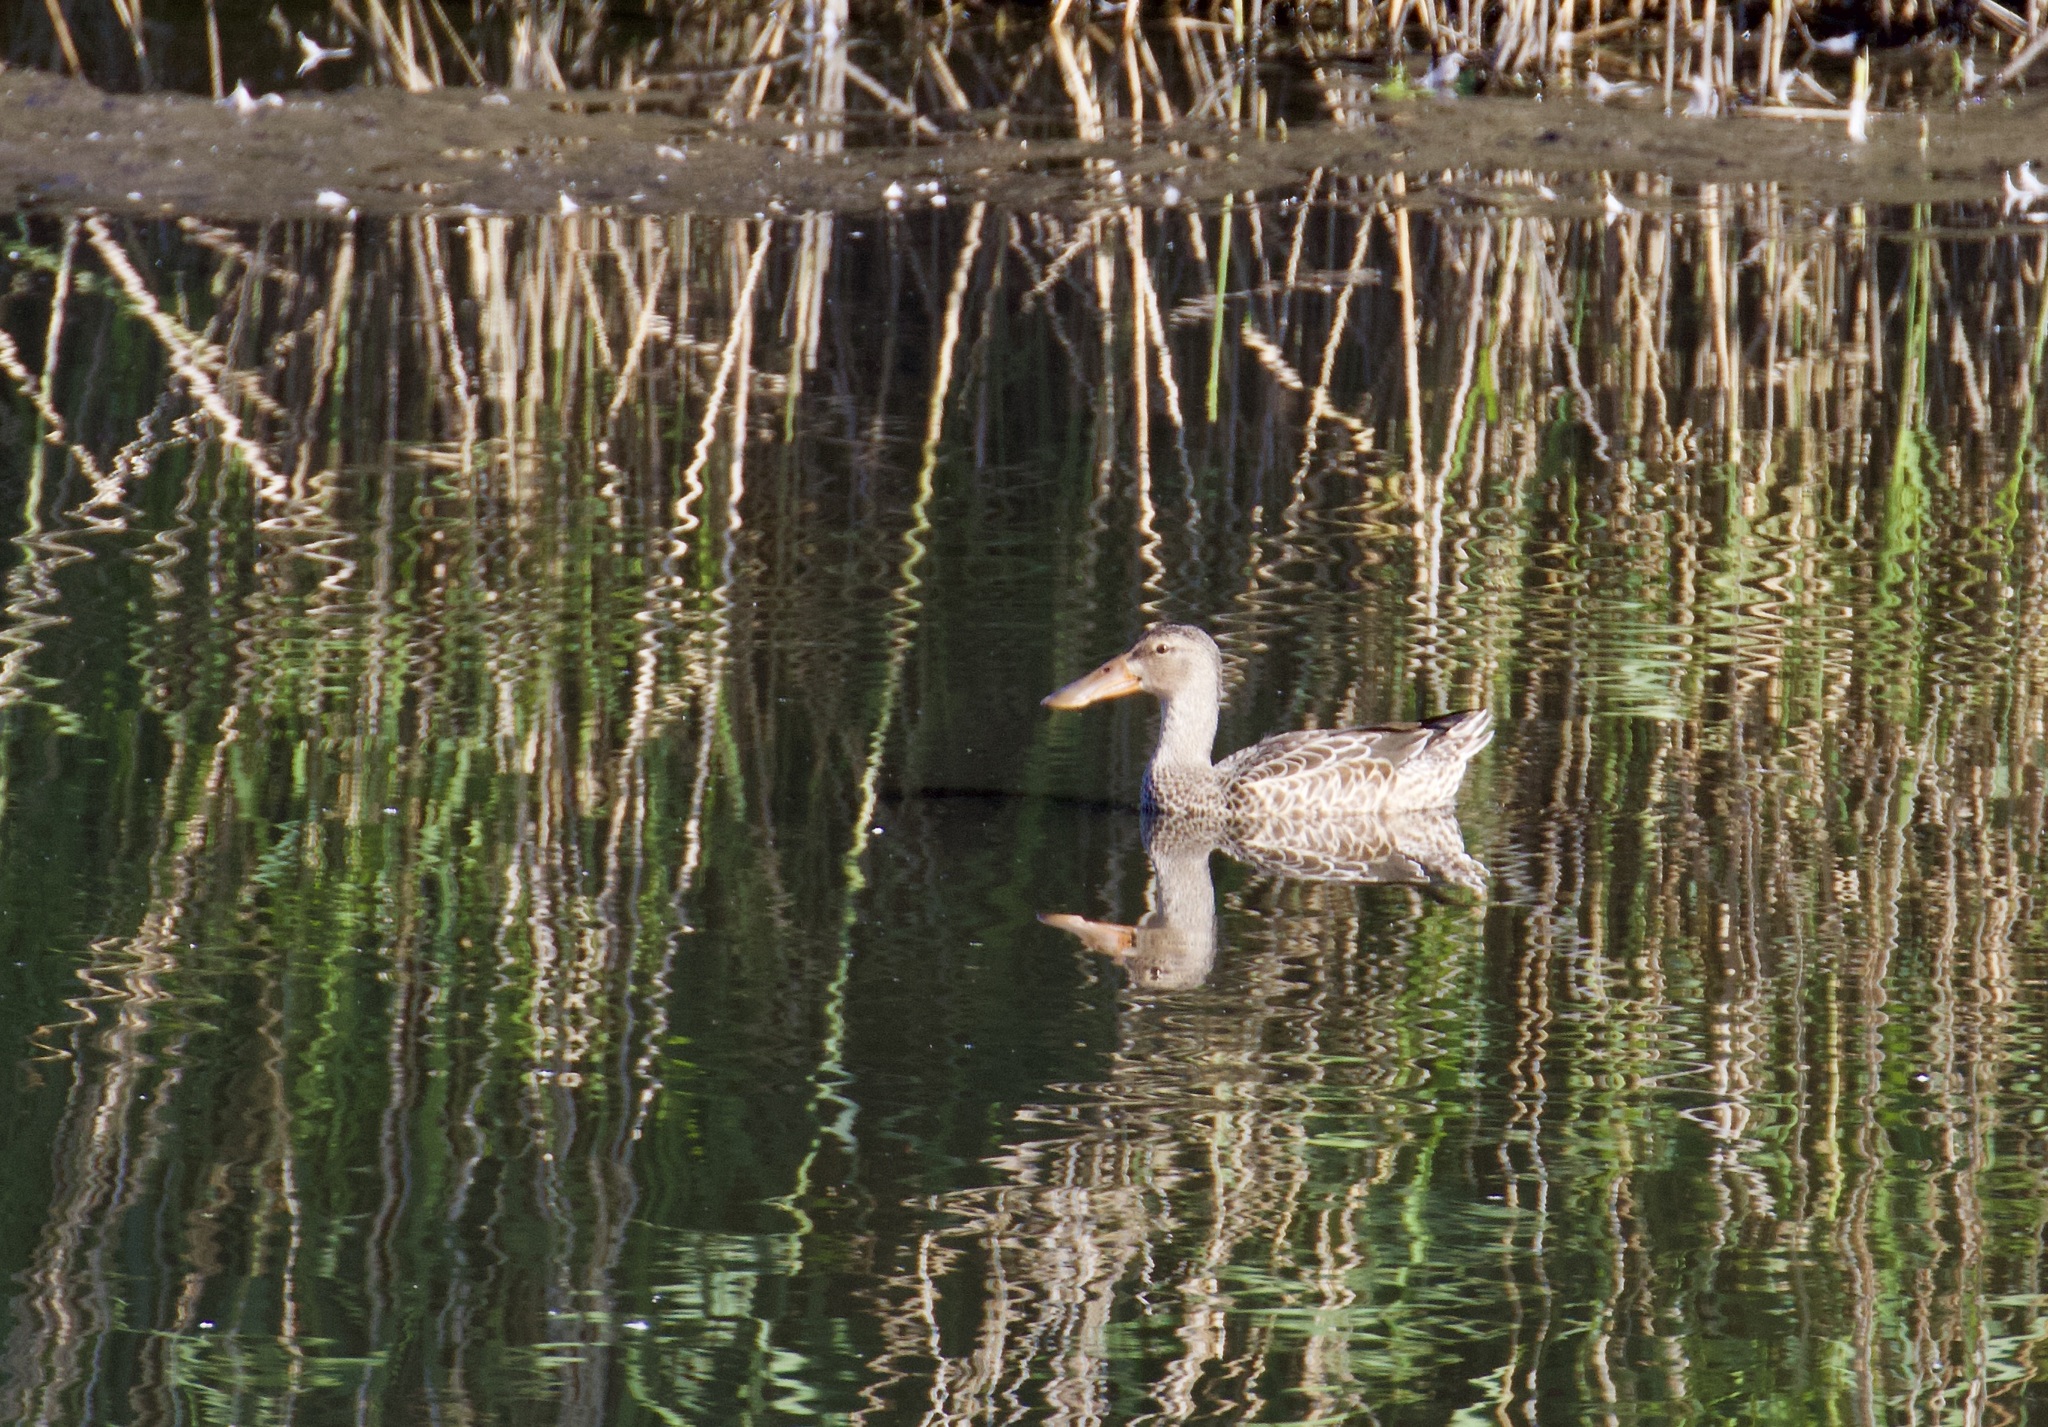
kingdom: Animalia
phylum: Chordata
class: Aves
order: Anseriformes
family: Anatidae
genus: Spatula
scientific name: Spatula clypeata
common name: Northern shoveler
